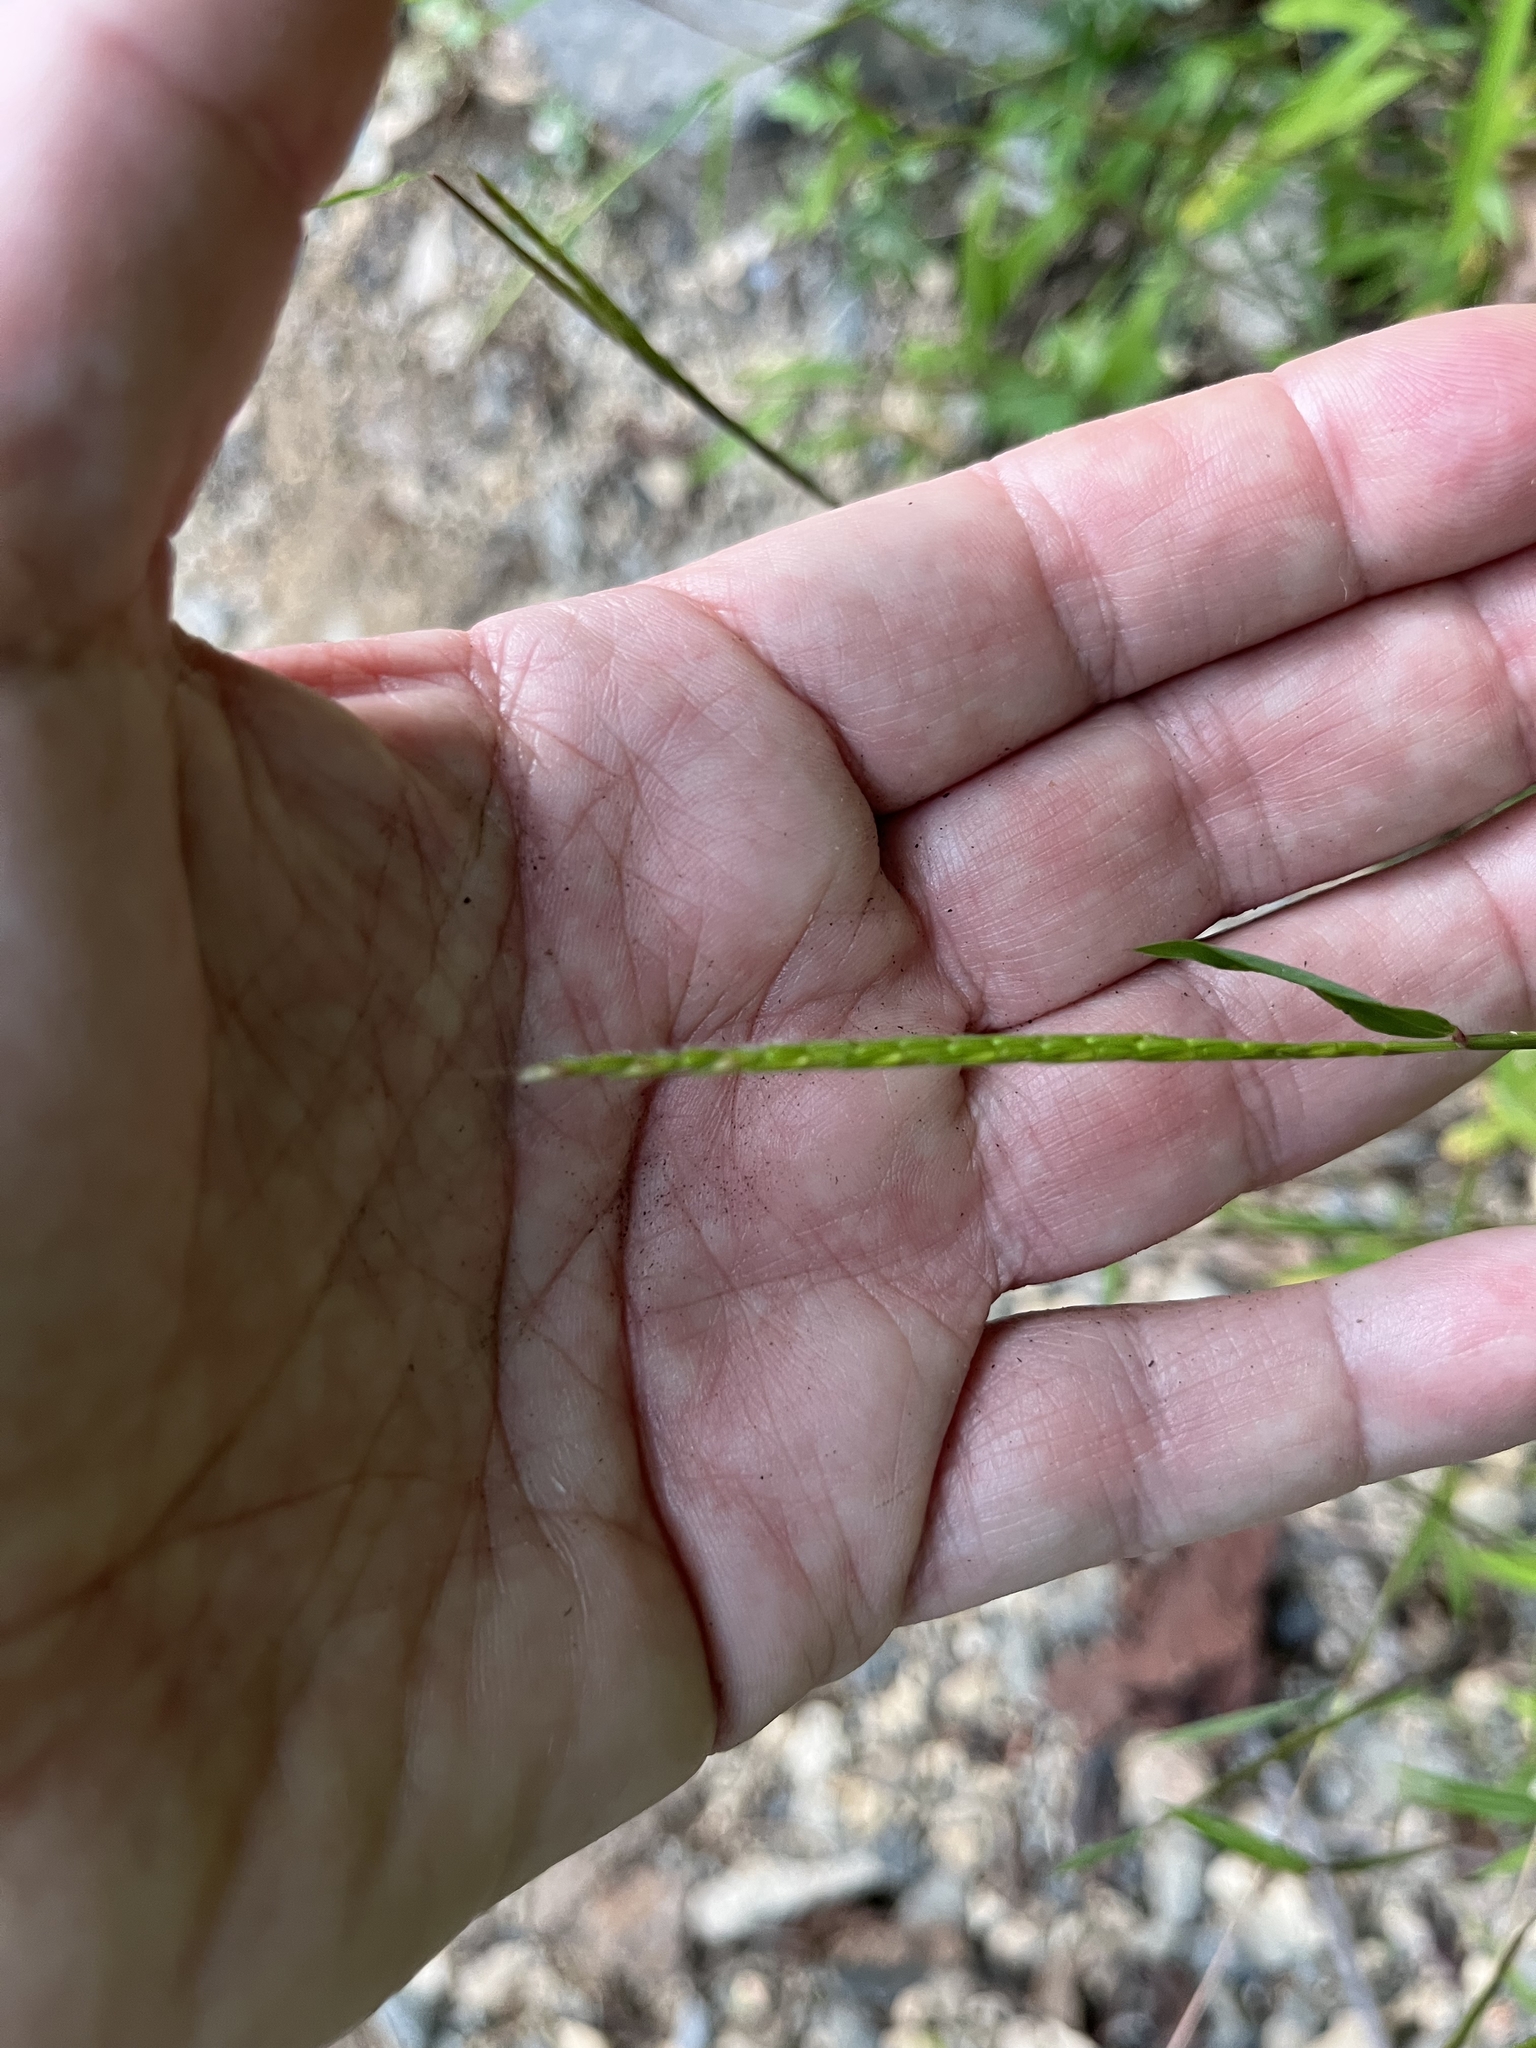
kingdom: Plantae
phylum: Tracheophyta
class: Liliopsida
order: Poales
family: Poaceae
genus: Microstegium
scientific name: Microstegium vimineum
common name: Japanese stiltgrass
